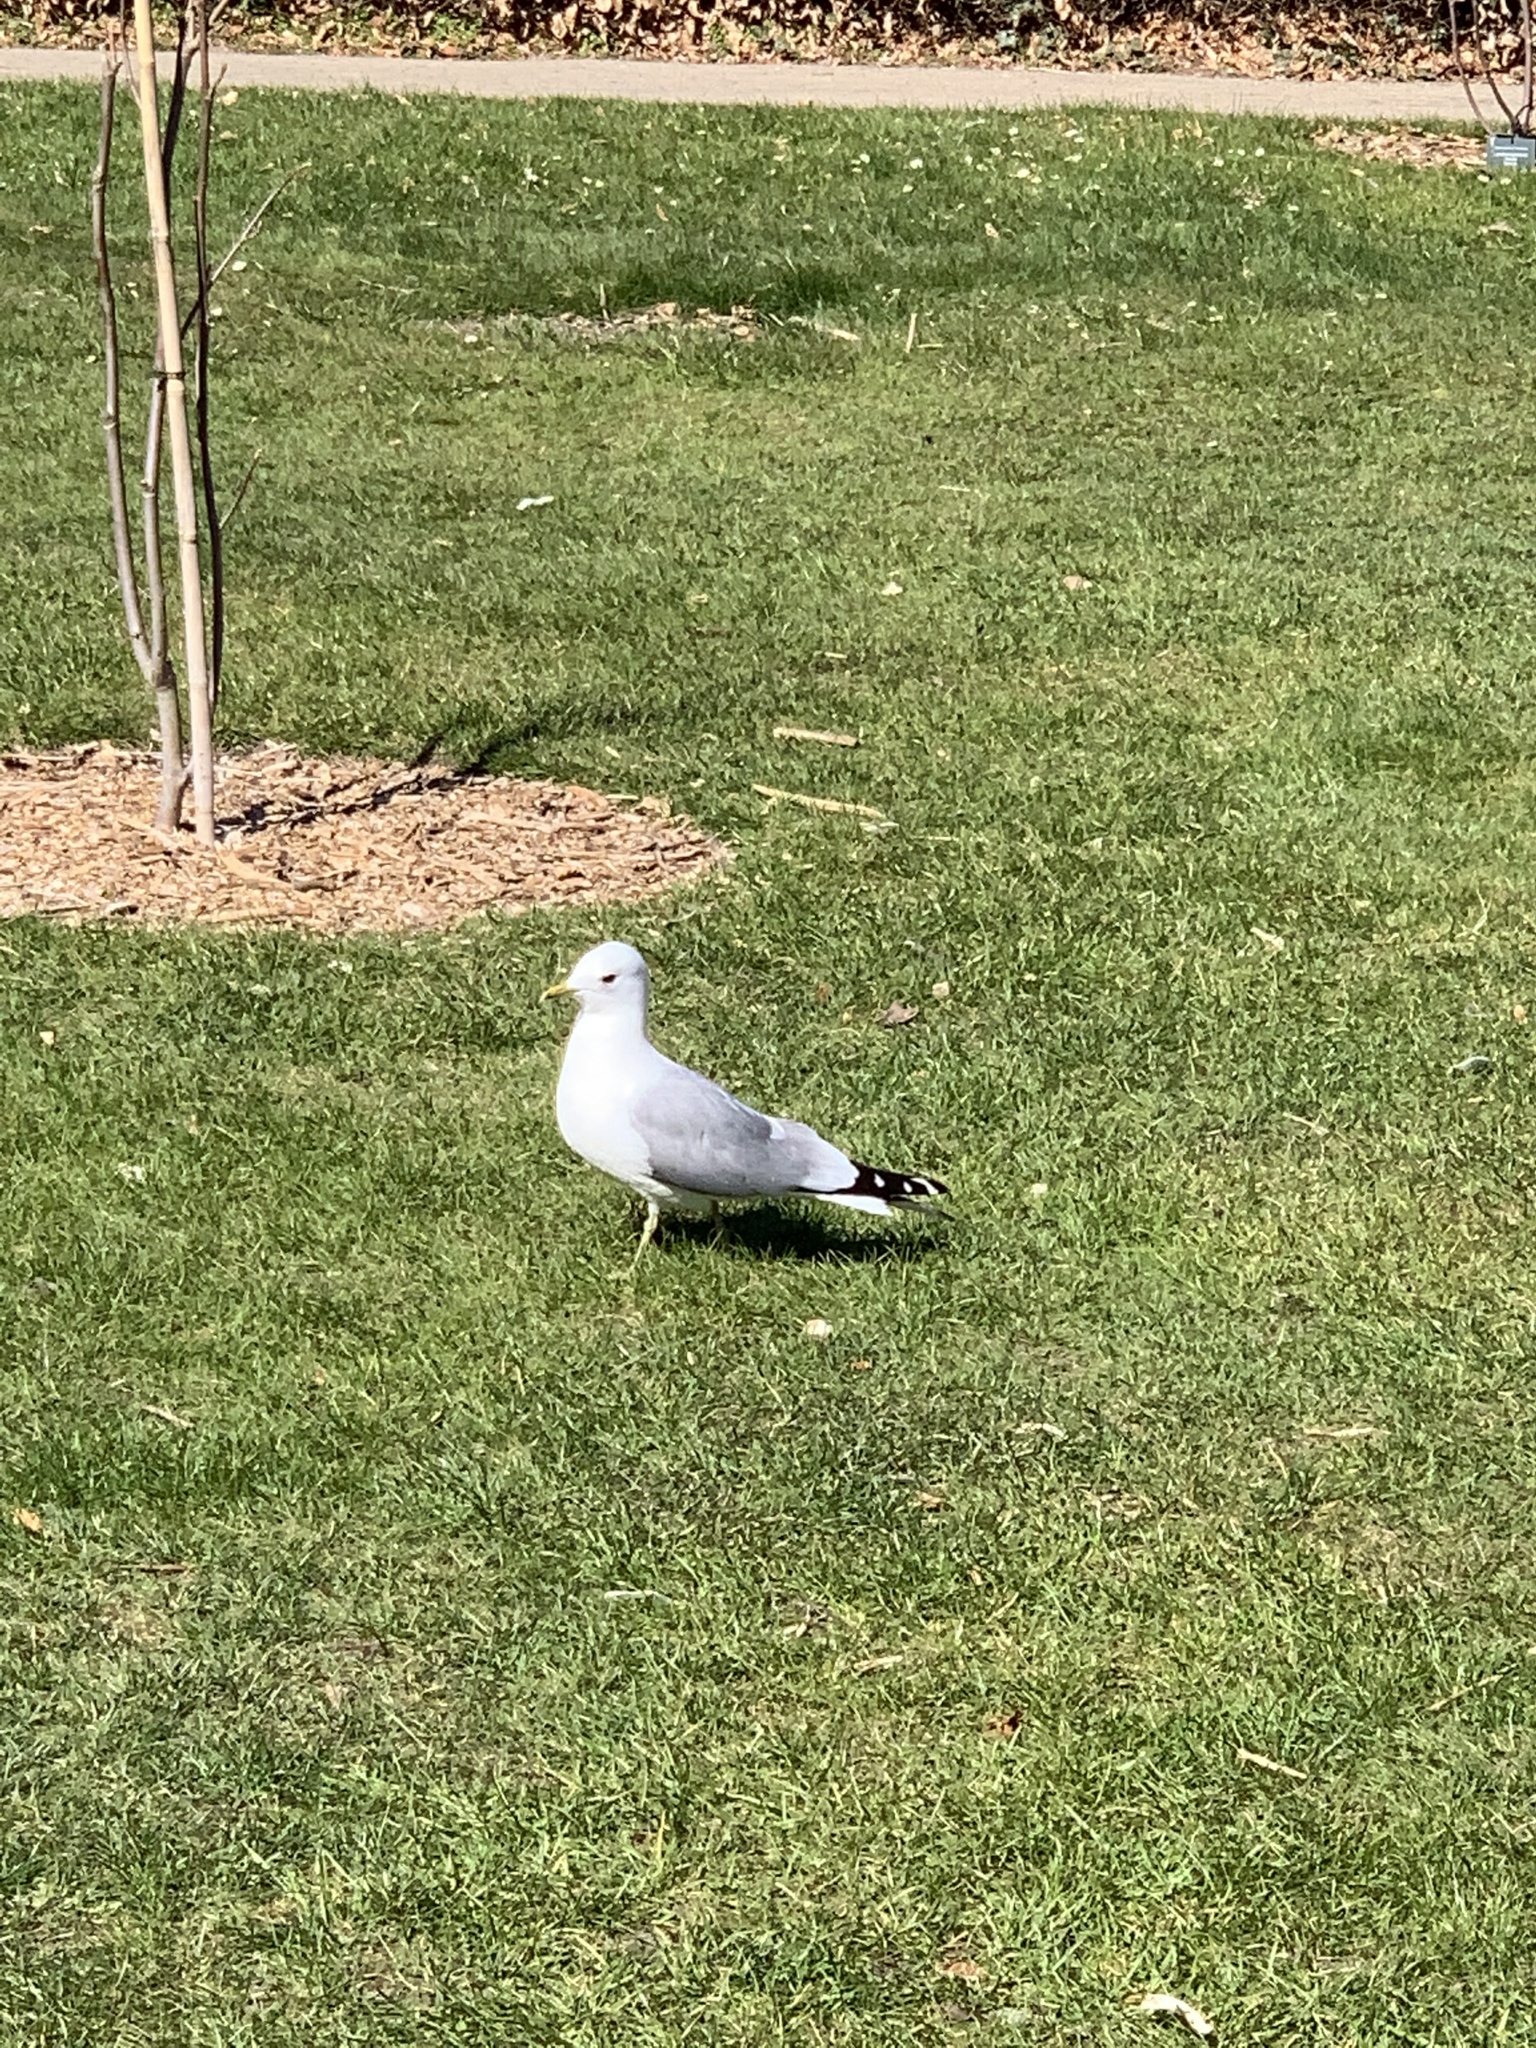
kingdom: Animalia
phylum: Chordata
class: Aves
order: Charadriiformes
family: Laridae
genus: Larus
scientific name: Larus canus
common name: Mew gull
